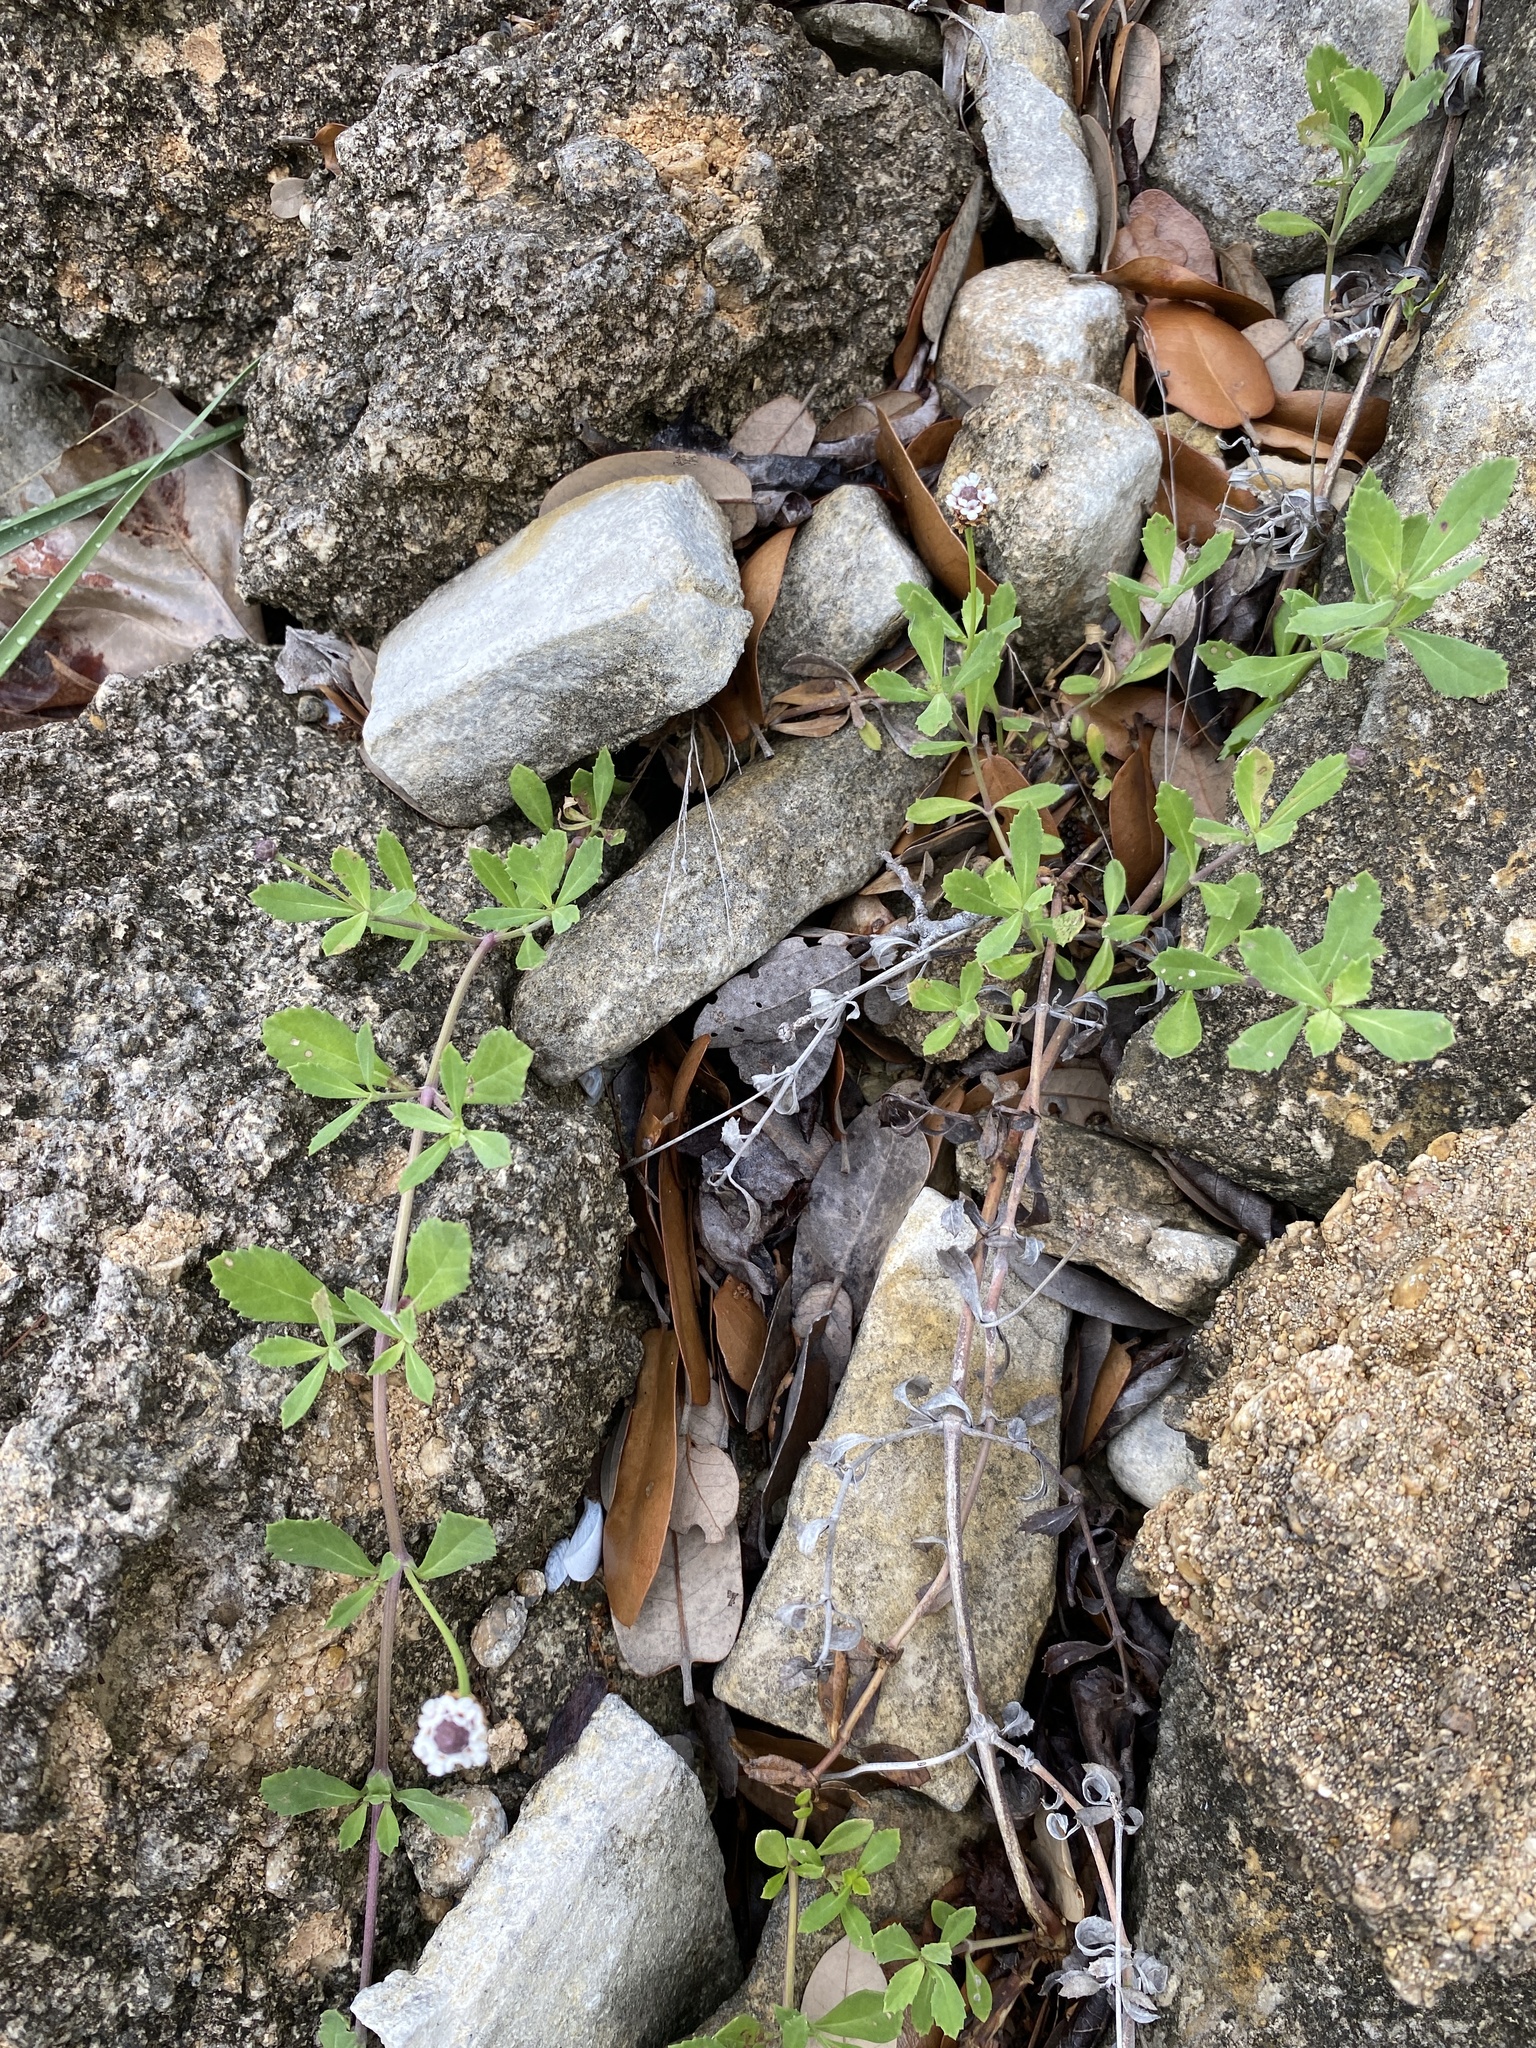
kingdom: Plantae
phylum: Tracheophyta
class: Magnoliopsida
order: Lamiales
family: Verbenaceae
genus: Phyla
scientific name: Phyla nodiflora
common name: Frogfruit
